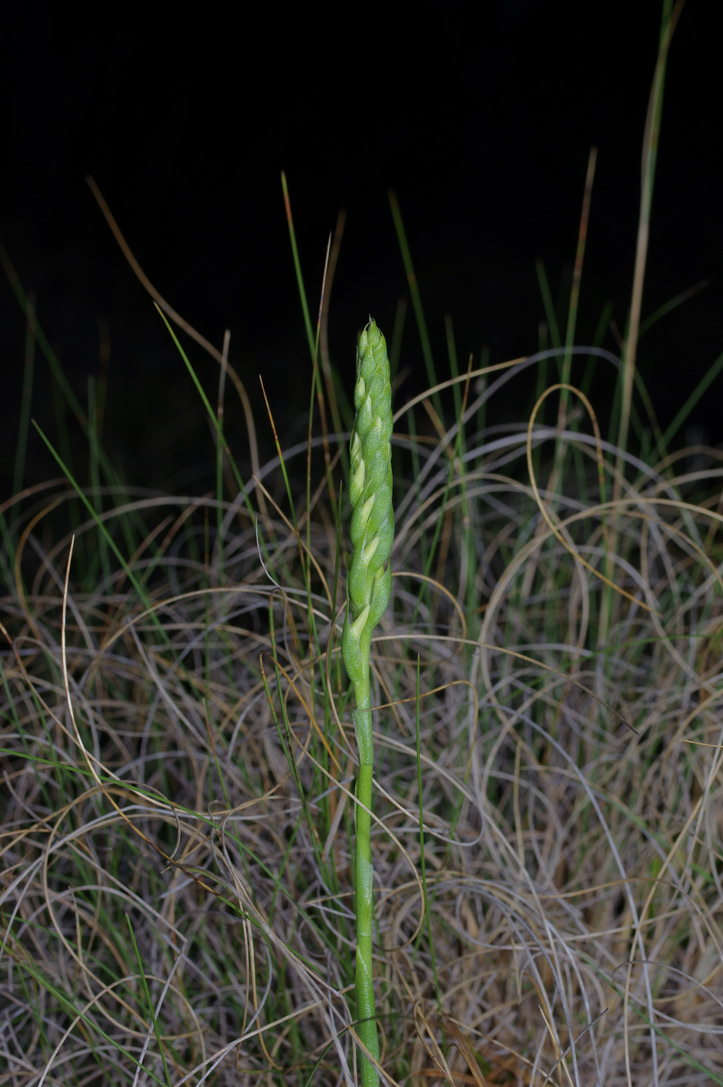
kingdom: Plantae
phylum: Tracheophyta
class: Liliopsida
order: Asparagales
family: Orchidaceae
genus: Spiranthes
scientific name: Spiranthes magnicamporum
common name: Great plains ladies'-tresses
